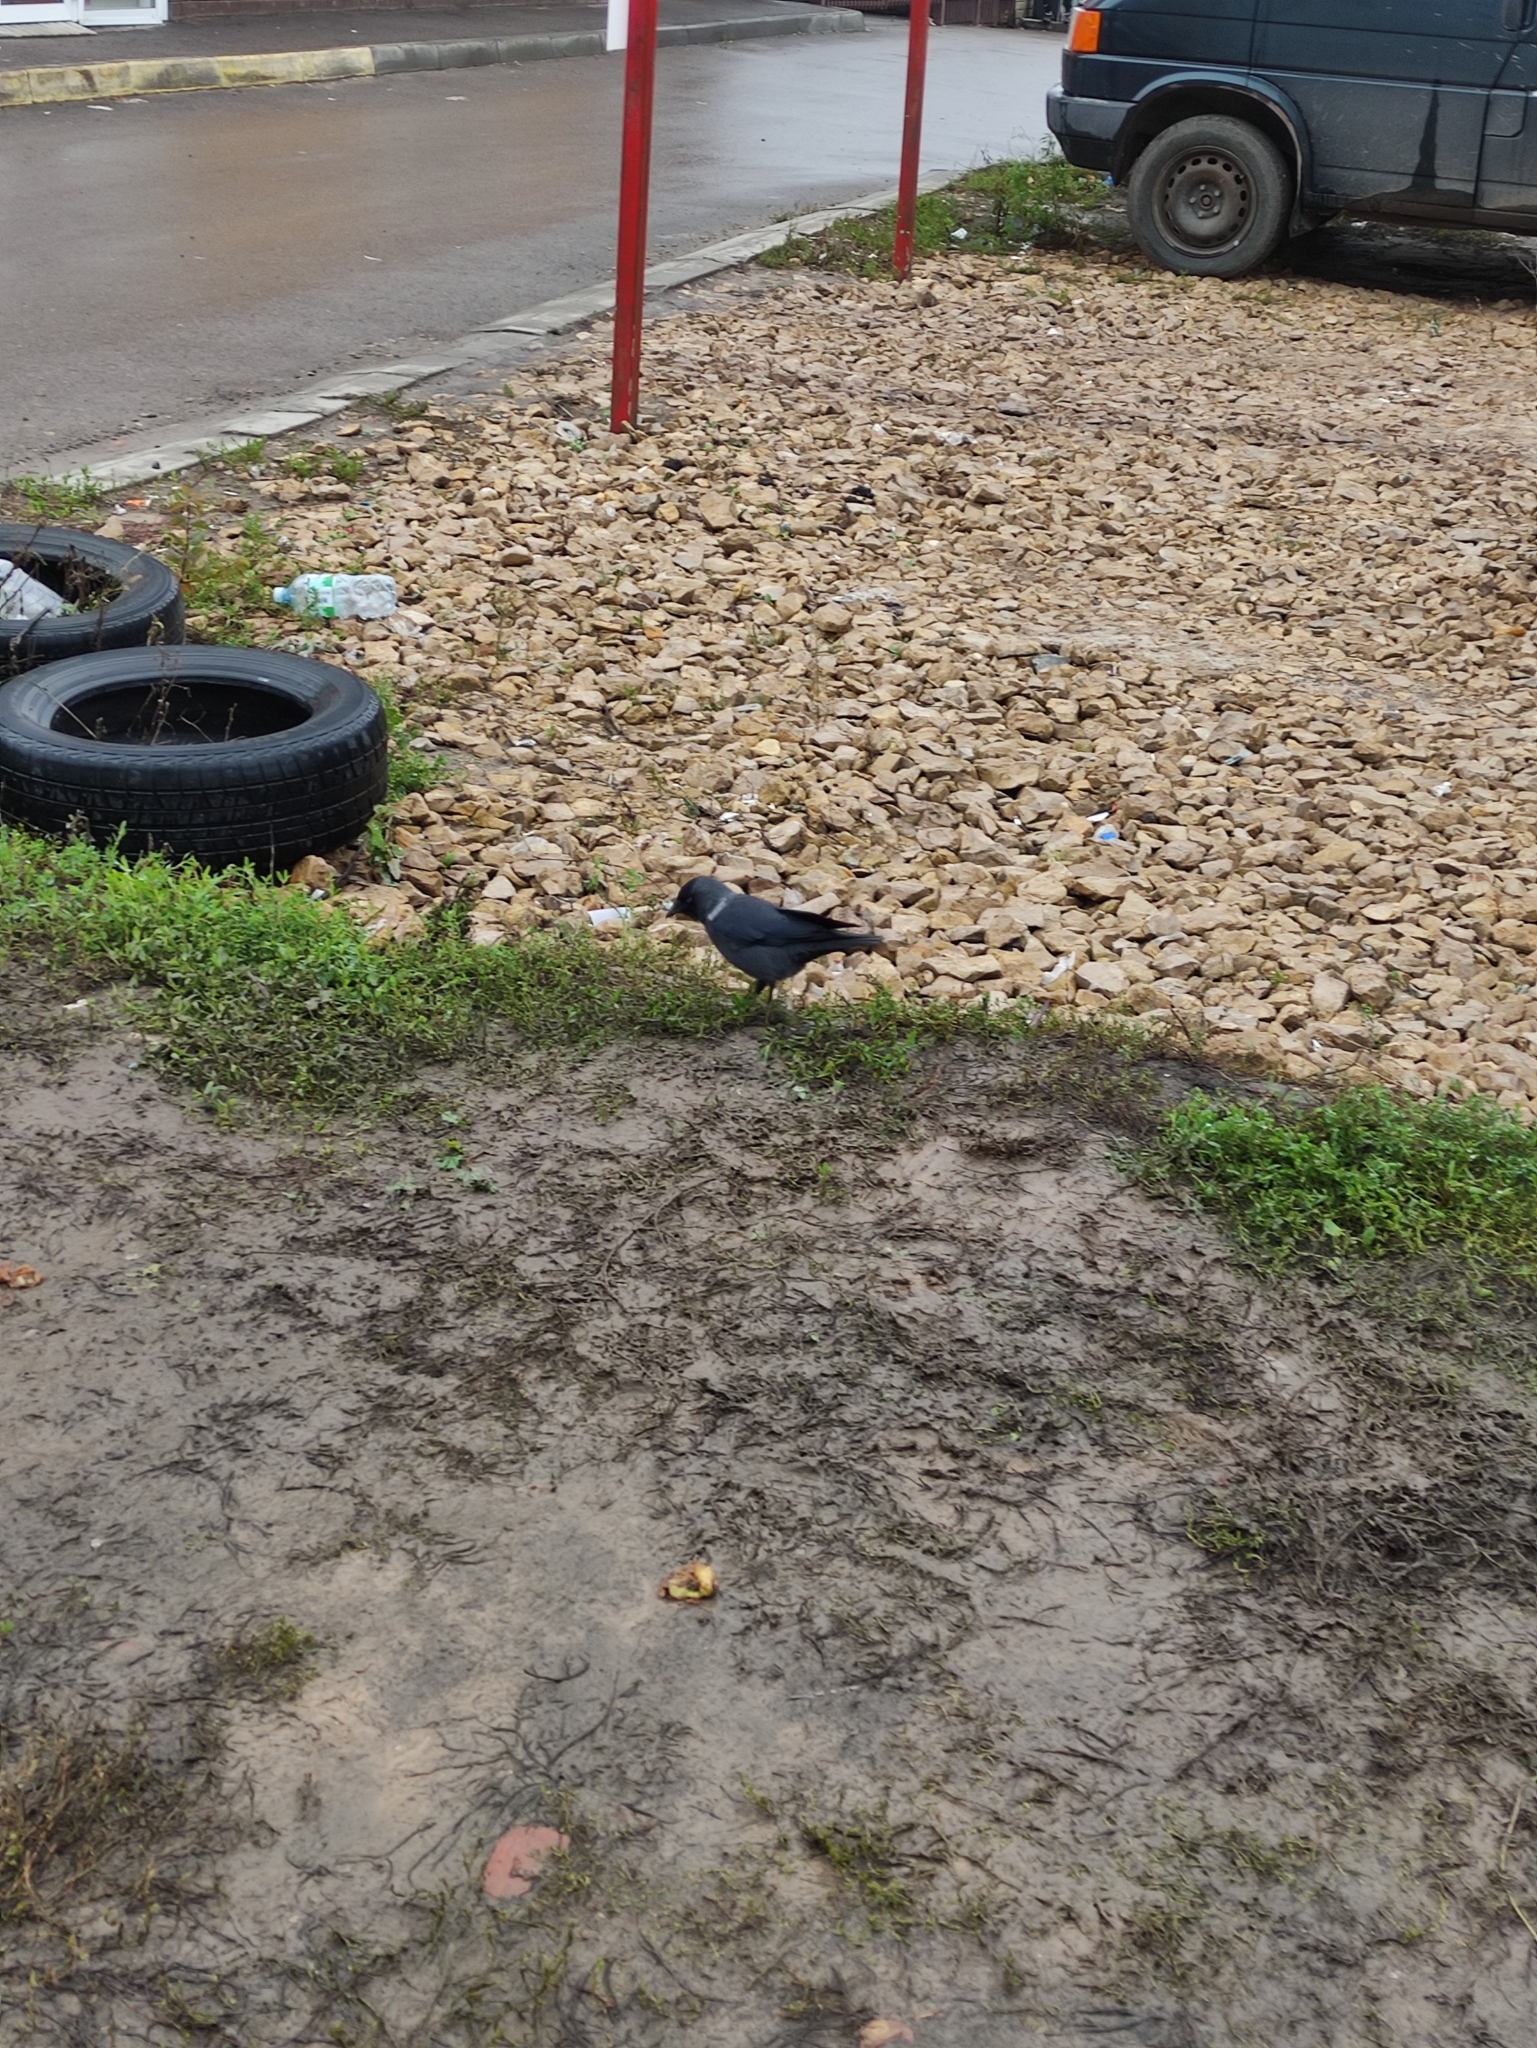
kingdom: Animalia
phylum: Chordata
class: Aves
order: Passeriformes
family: Corvidae
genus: Coloeus
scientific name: Coloeus monedula
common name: Western jackdaw
